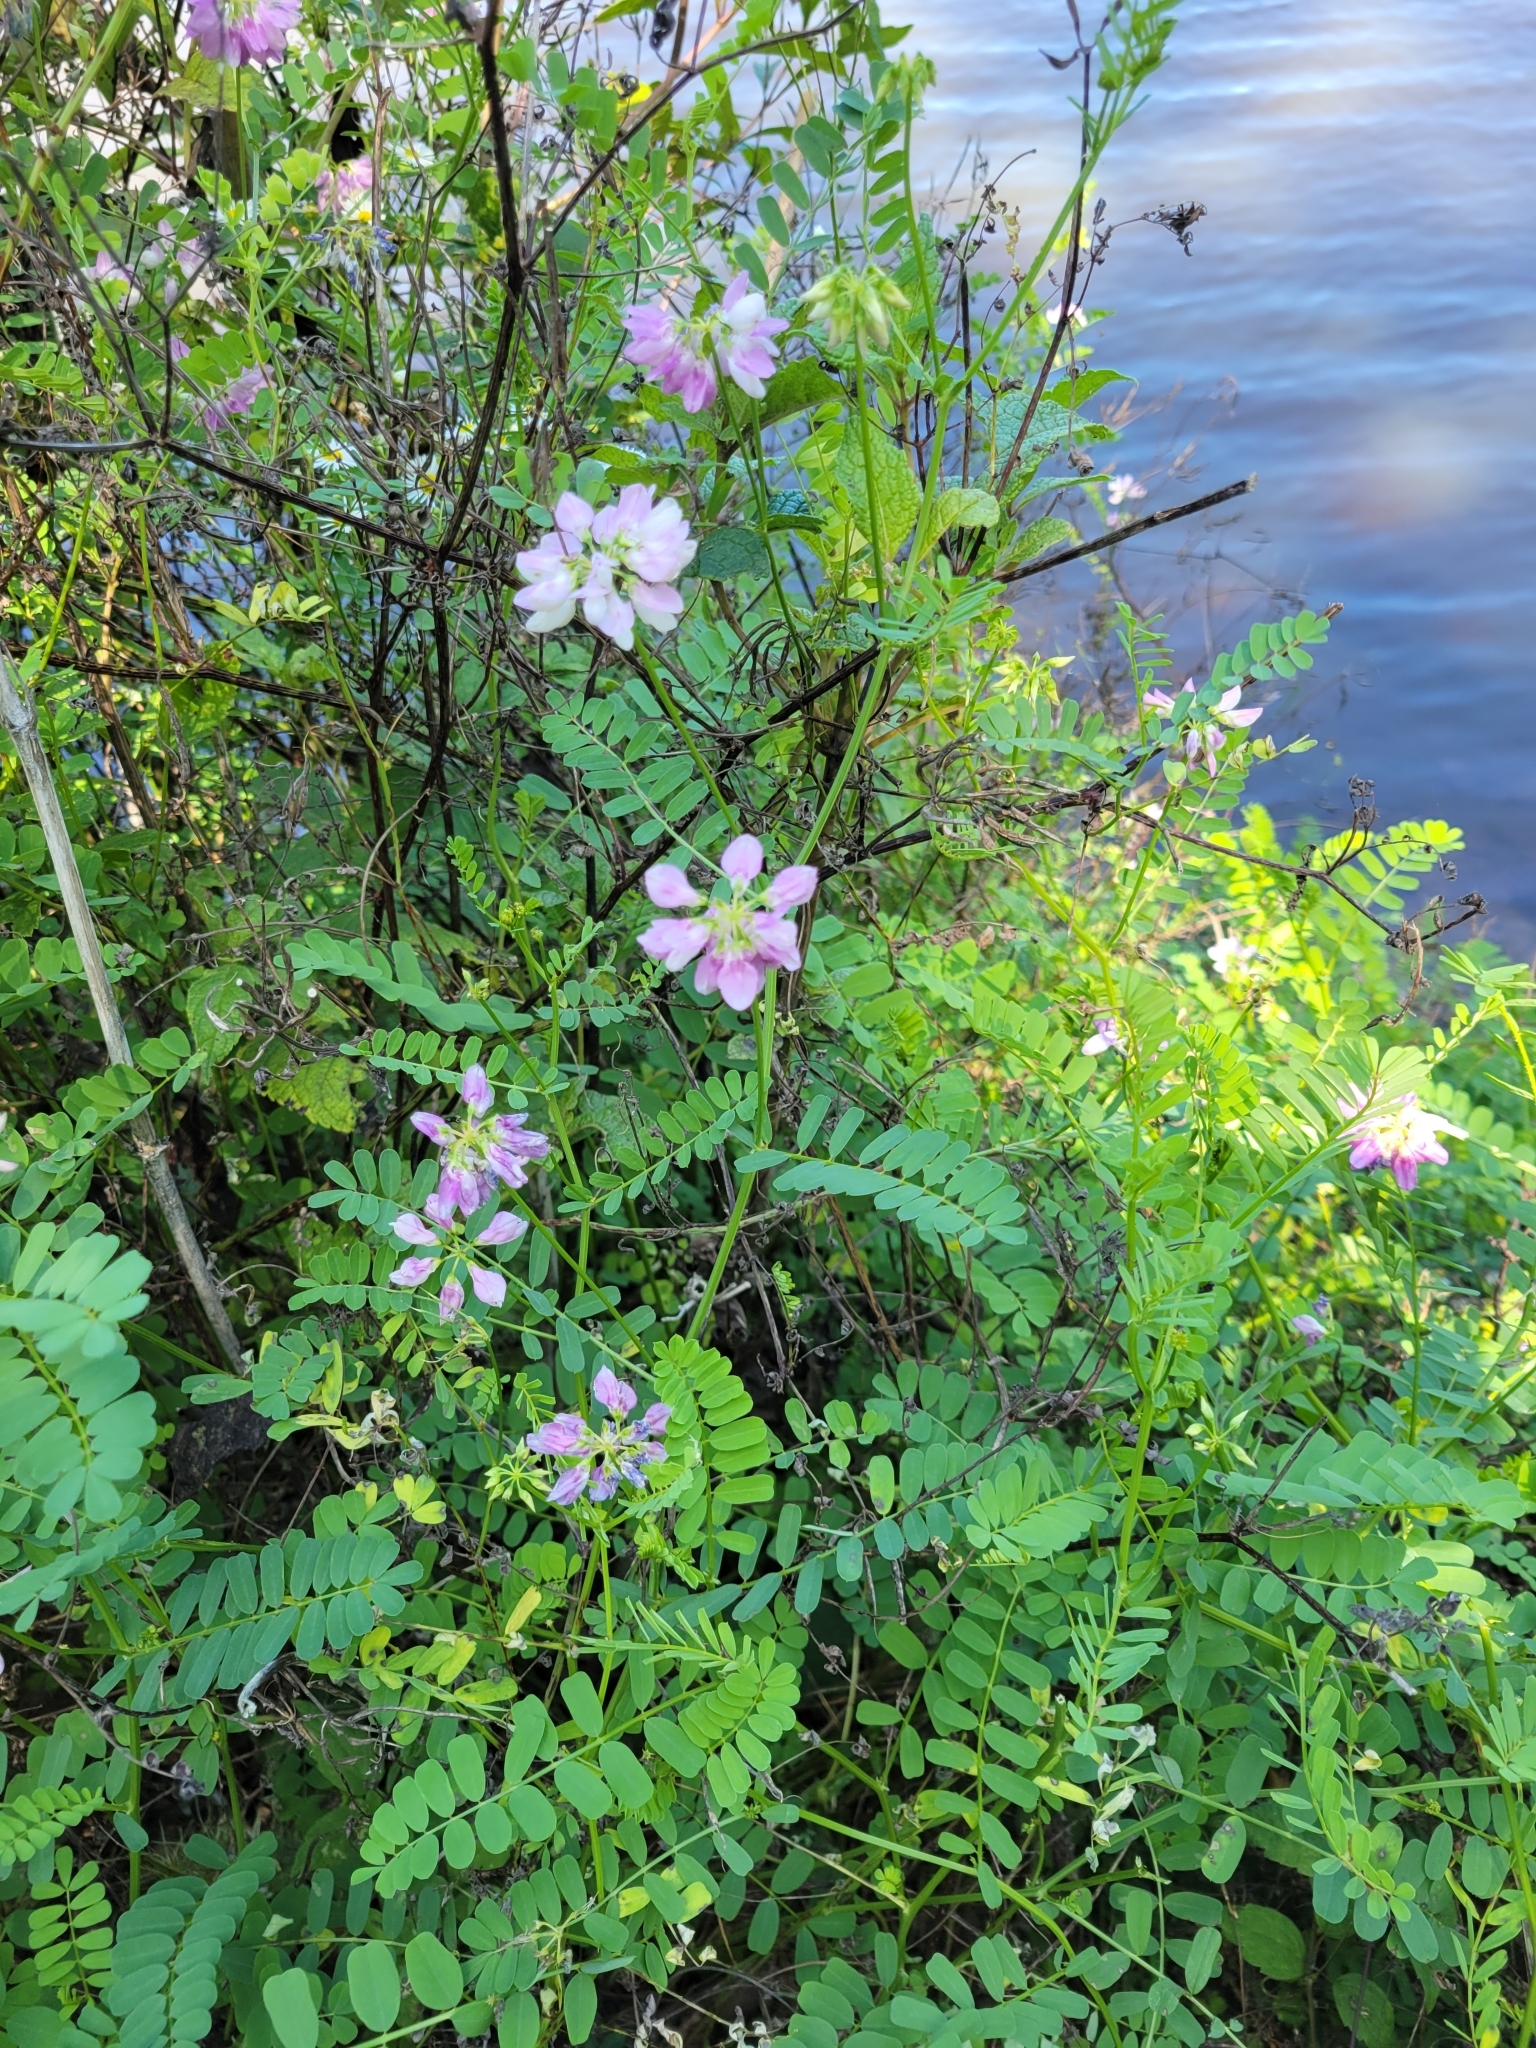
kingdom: Plantae
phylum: Tracheophyta
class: Magnoliopsida
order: Fabales
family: Fabaceae
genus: Coronilla
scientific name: Coronilla varia
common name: Crownvetch
